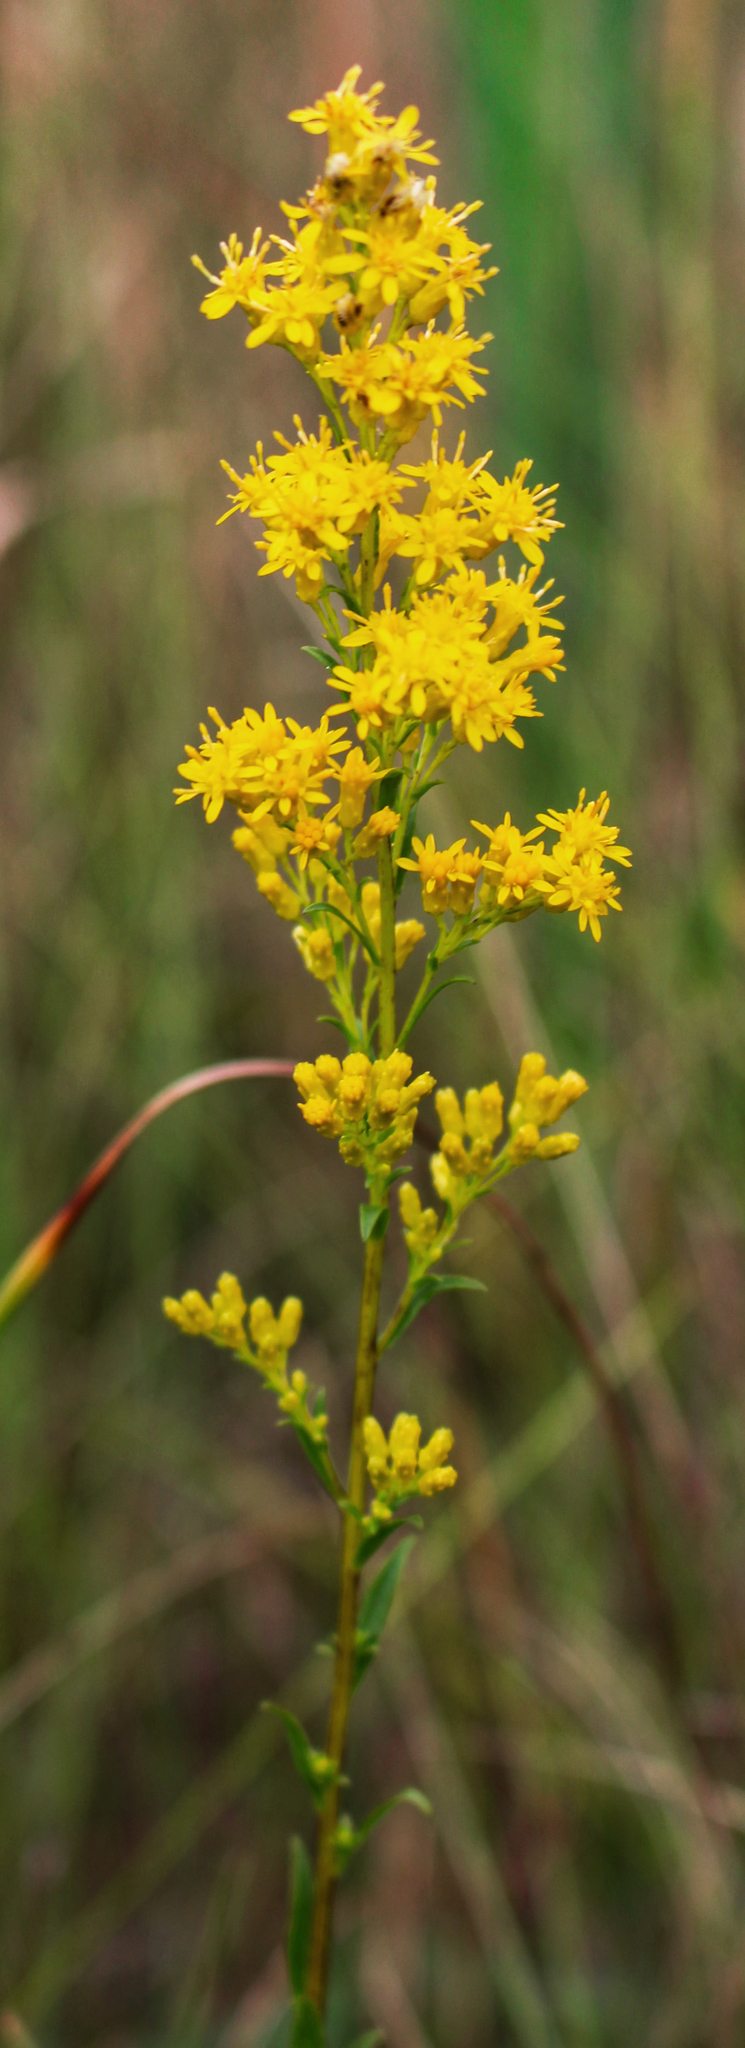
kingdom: Plantae
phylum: Tracheophyta
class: Magnoliopsida
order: Asterales
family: Asteraceae
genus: Solidago
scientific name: Solidago uliginosa
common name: Bog goldenrod
